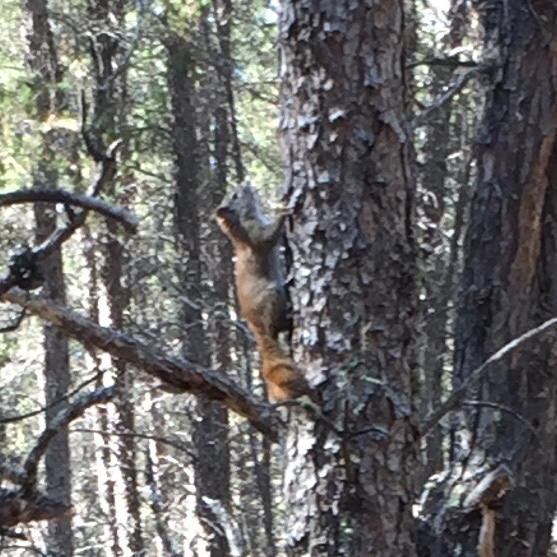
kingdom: Animalia
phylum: Chordata
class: Mammalia
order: Rodentia
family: Sciuridae
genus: Tamiasciurus
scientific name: Tamiasciurus hudsonicus
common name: Red squirrel
